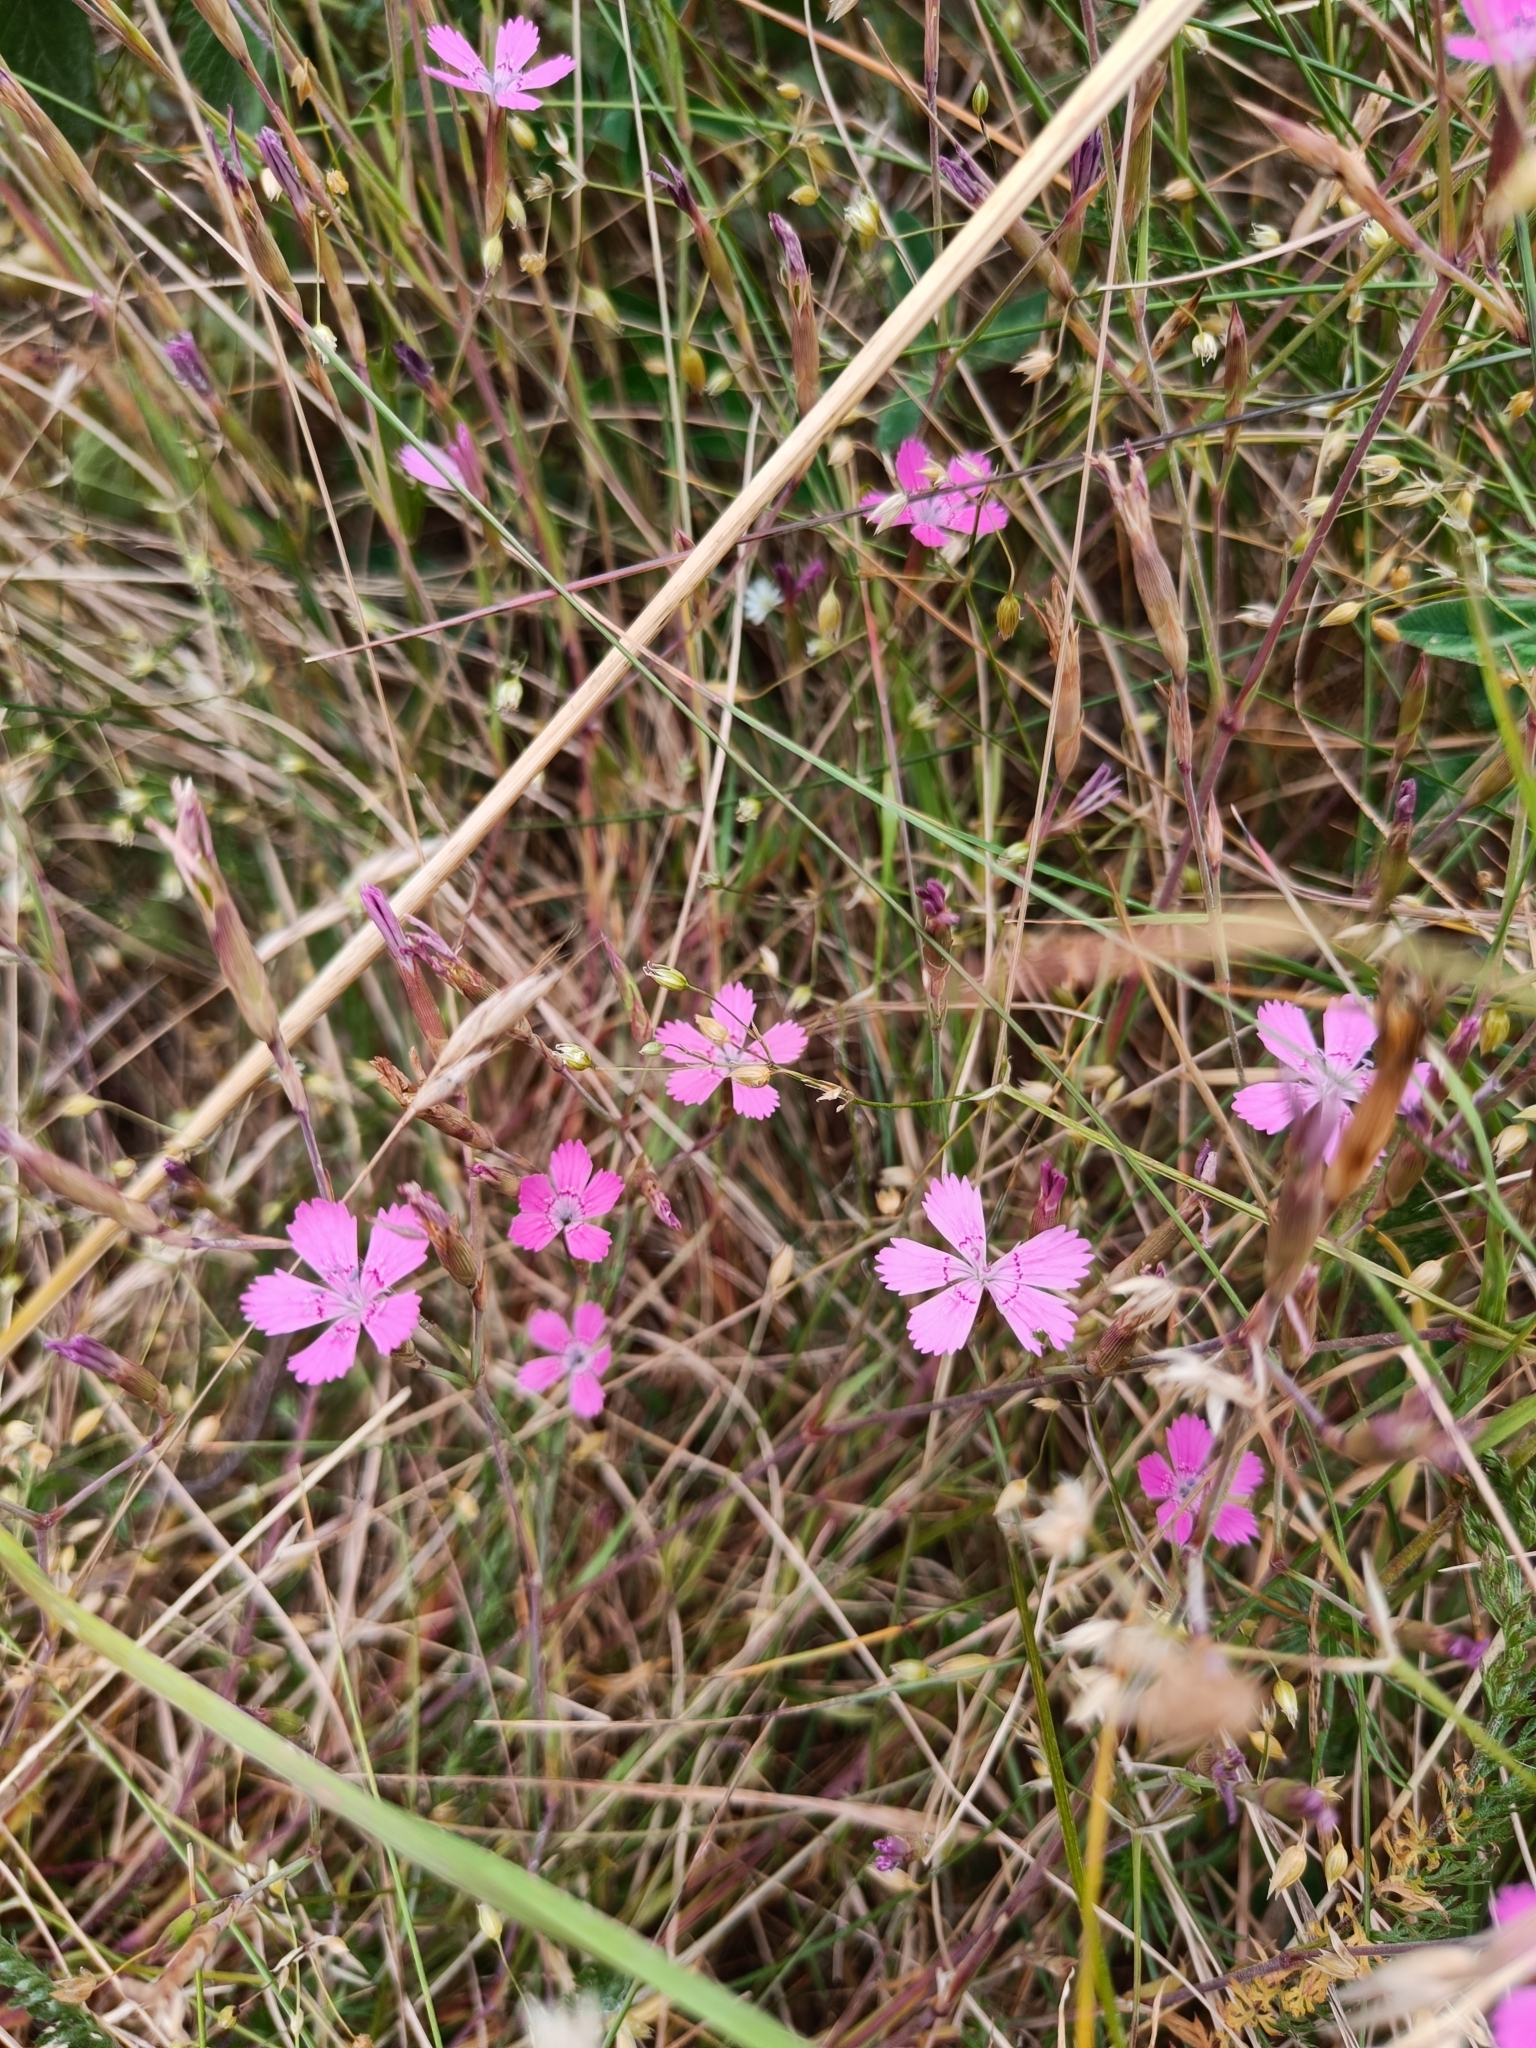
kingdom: Plantae
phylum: Tracheophyta
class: Magnoliopsida
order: Caryophyllales
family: Caryophyllaceae
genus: Dianthus
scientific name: Dianthus deltoides
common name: Maiden pink
